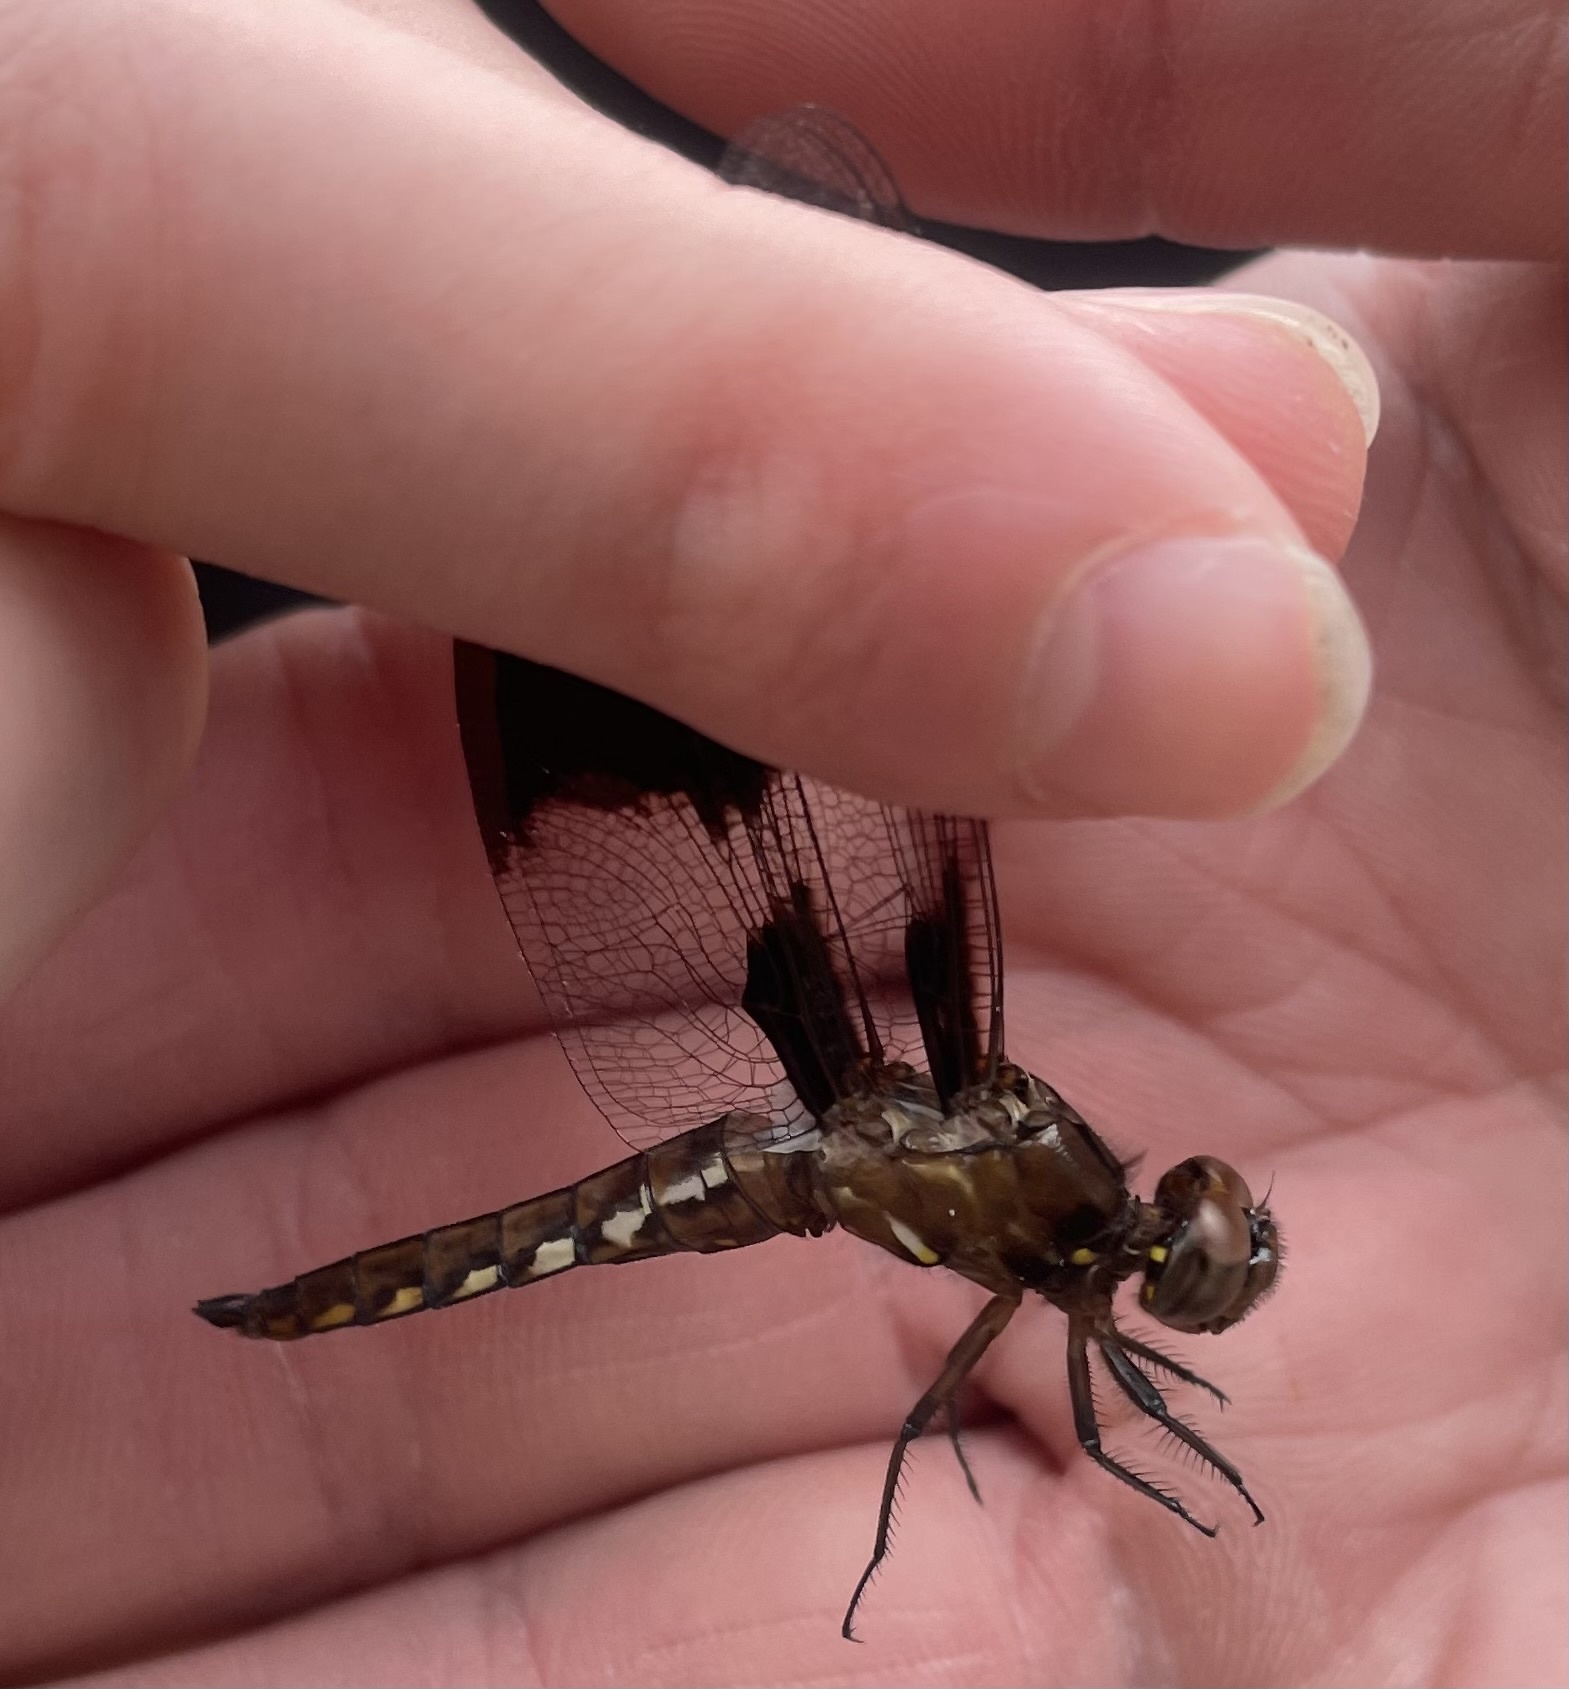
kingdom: Animalia
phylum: Arthropoda
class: Insecta
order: Odonata
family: Libellulidae
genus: Plathemis
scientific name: Plathemis lydia
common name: Common whitetail
